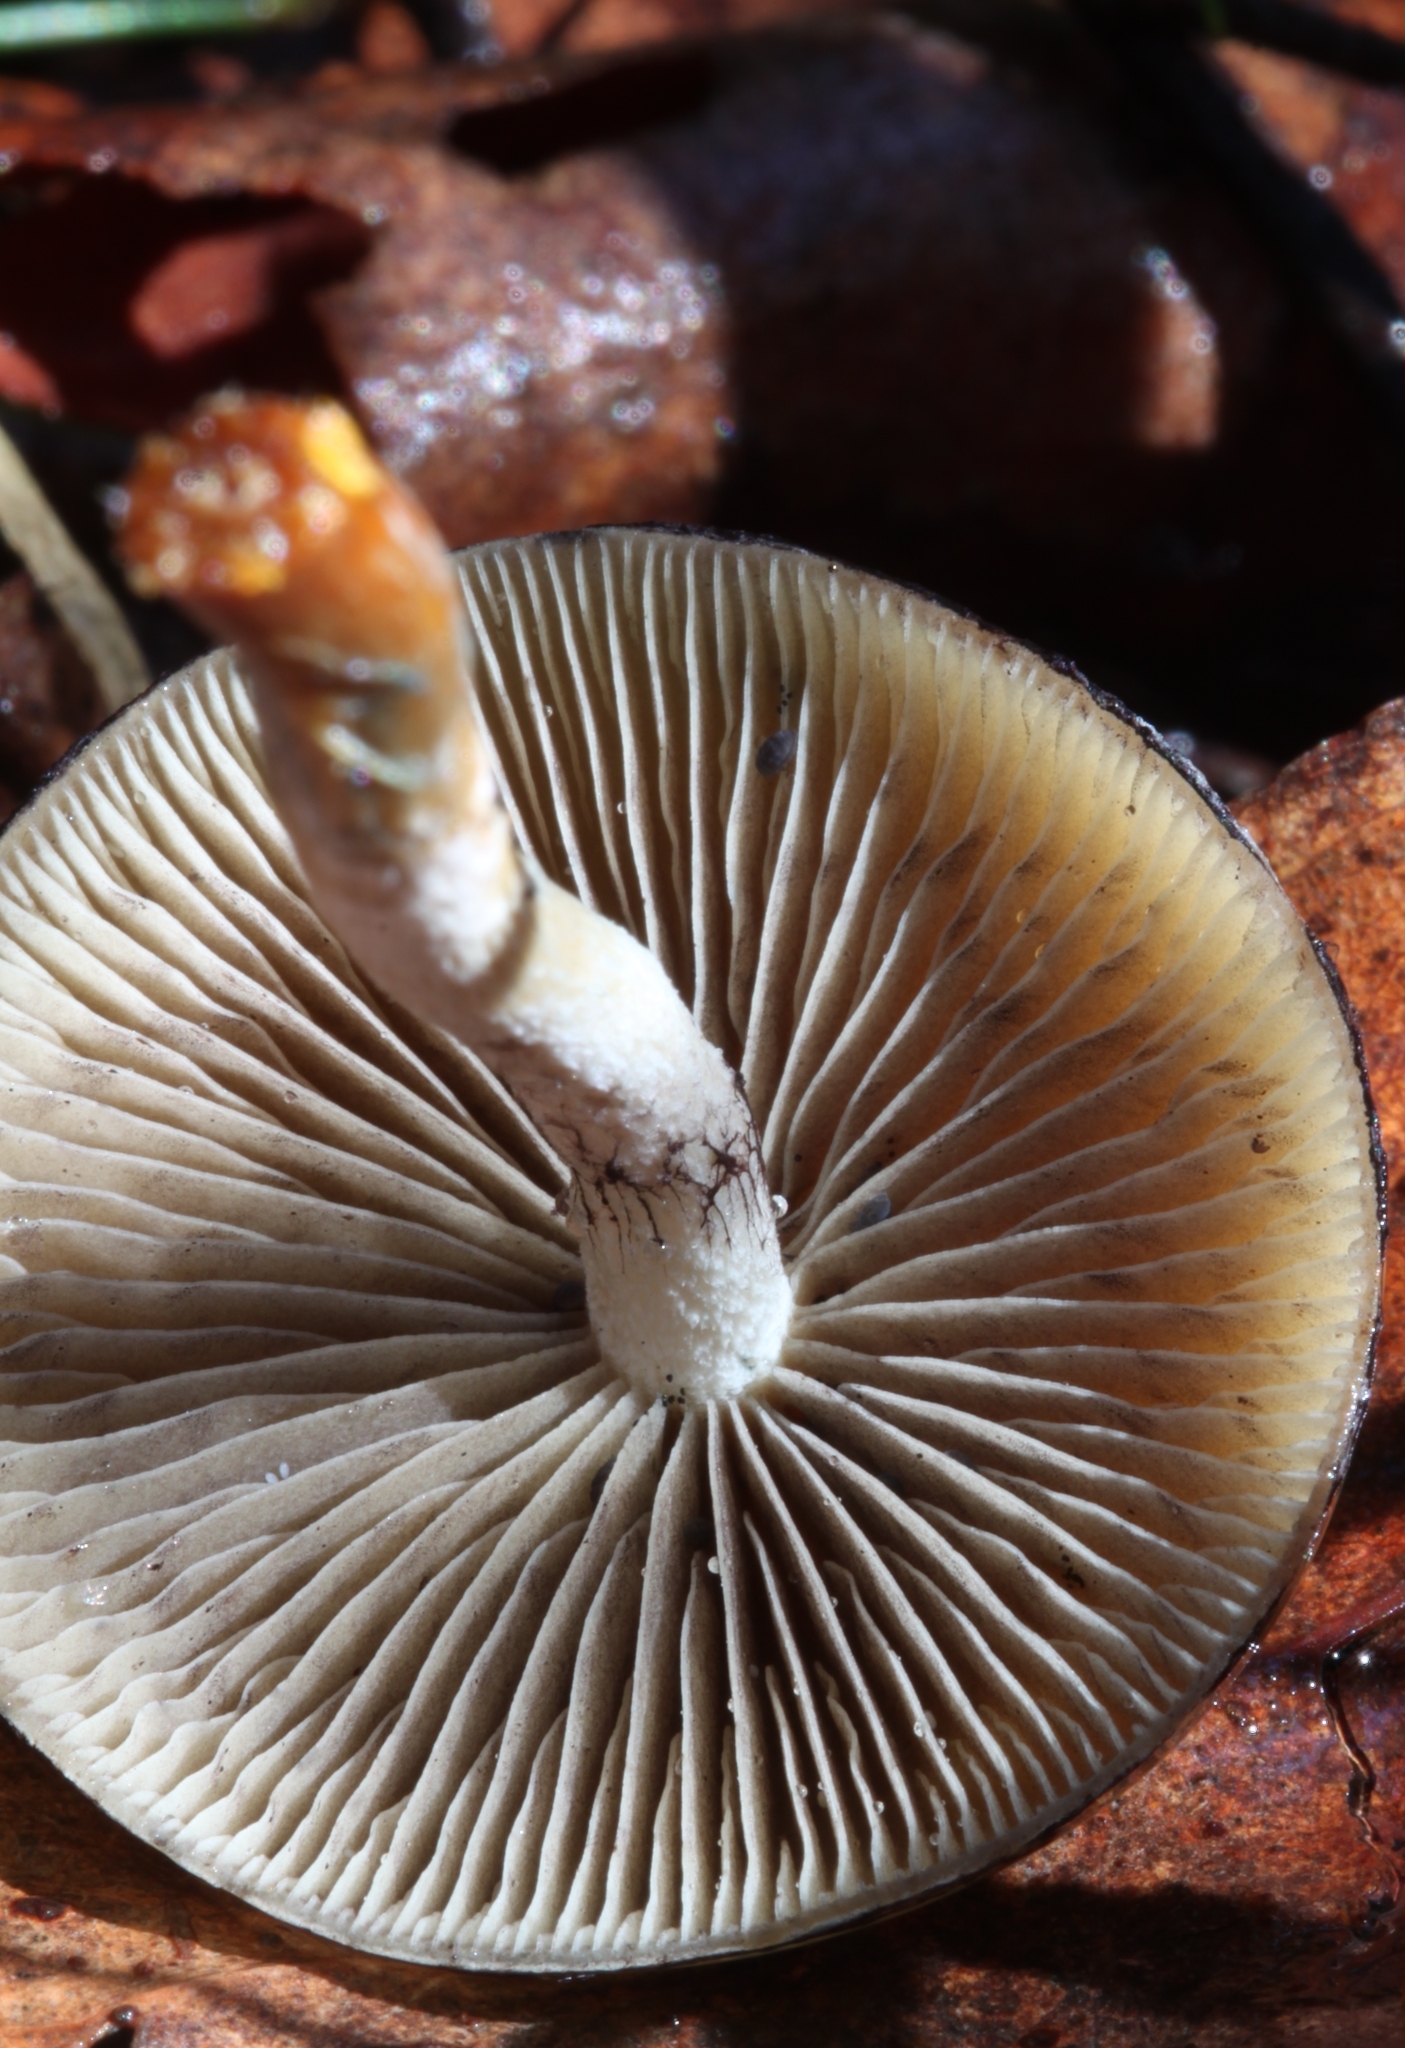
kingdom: Fungi
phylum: Basidiomycota
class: Agaricomycetes
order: Agaricales
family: Hymenogastraceae
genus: Psilocybe
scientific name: Psilocybe subaeruginosa
